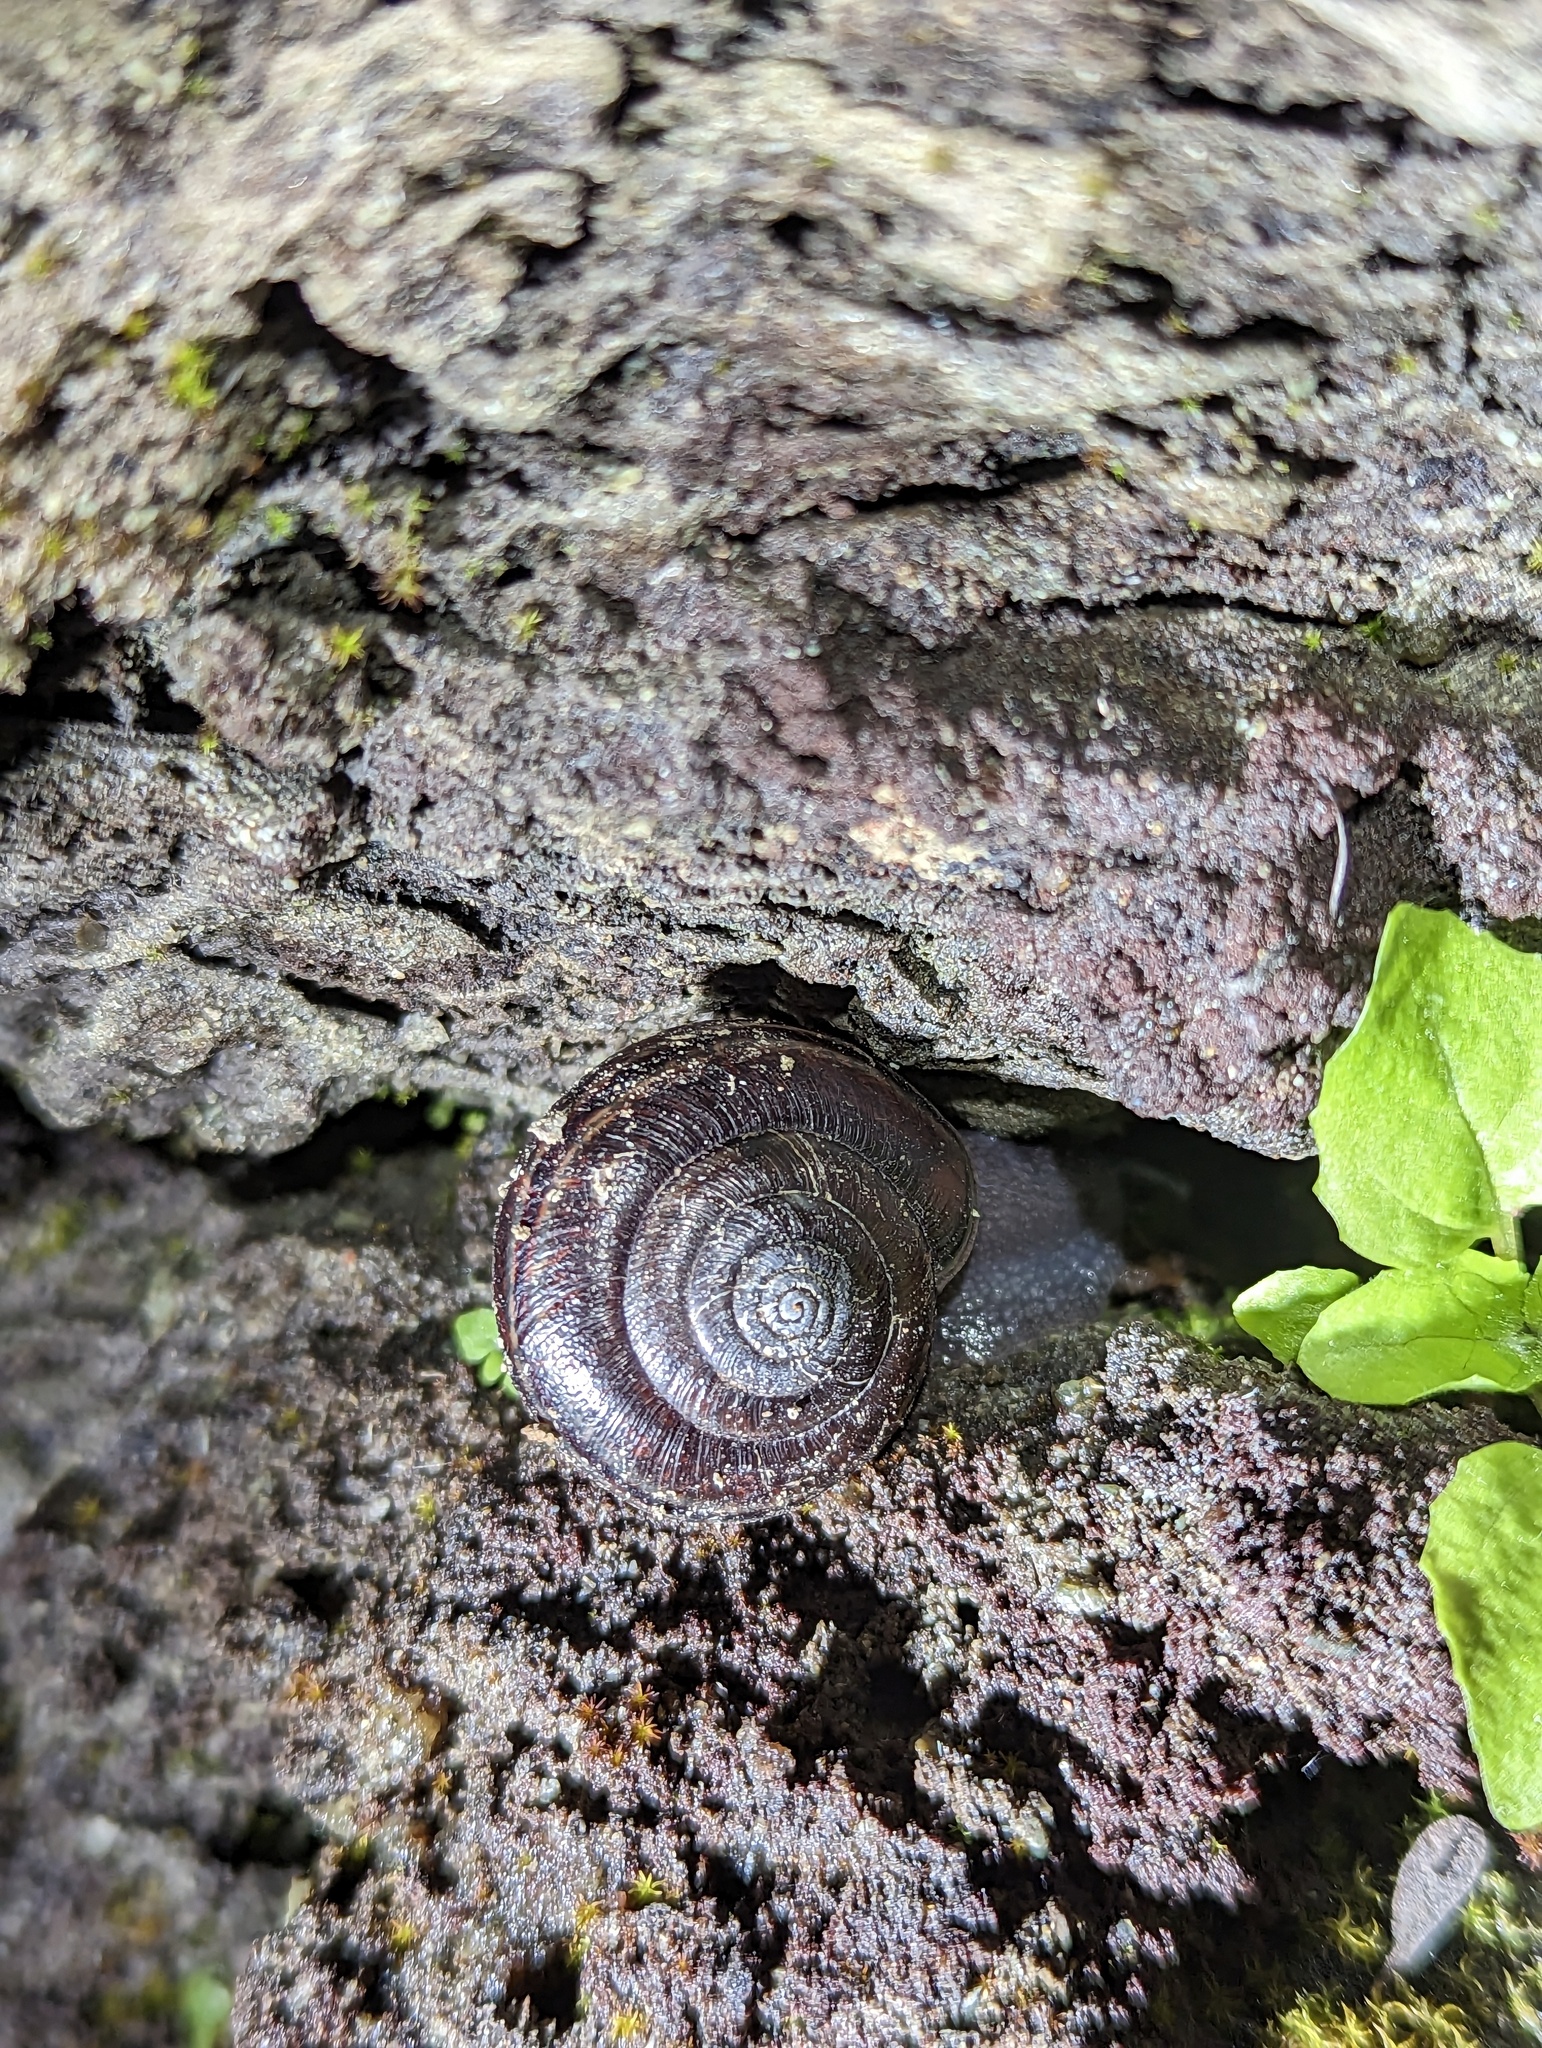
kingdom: Animalia
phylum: Mollusca
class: Gastropoda
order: Stylommatophora
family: Xanthonychidae
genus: Helminthoglypta
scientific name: Helminthoglypta umbilicata
